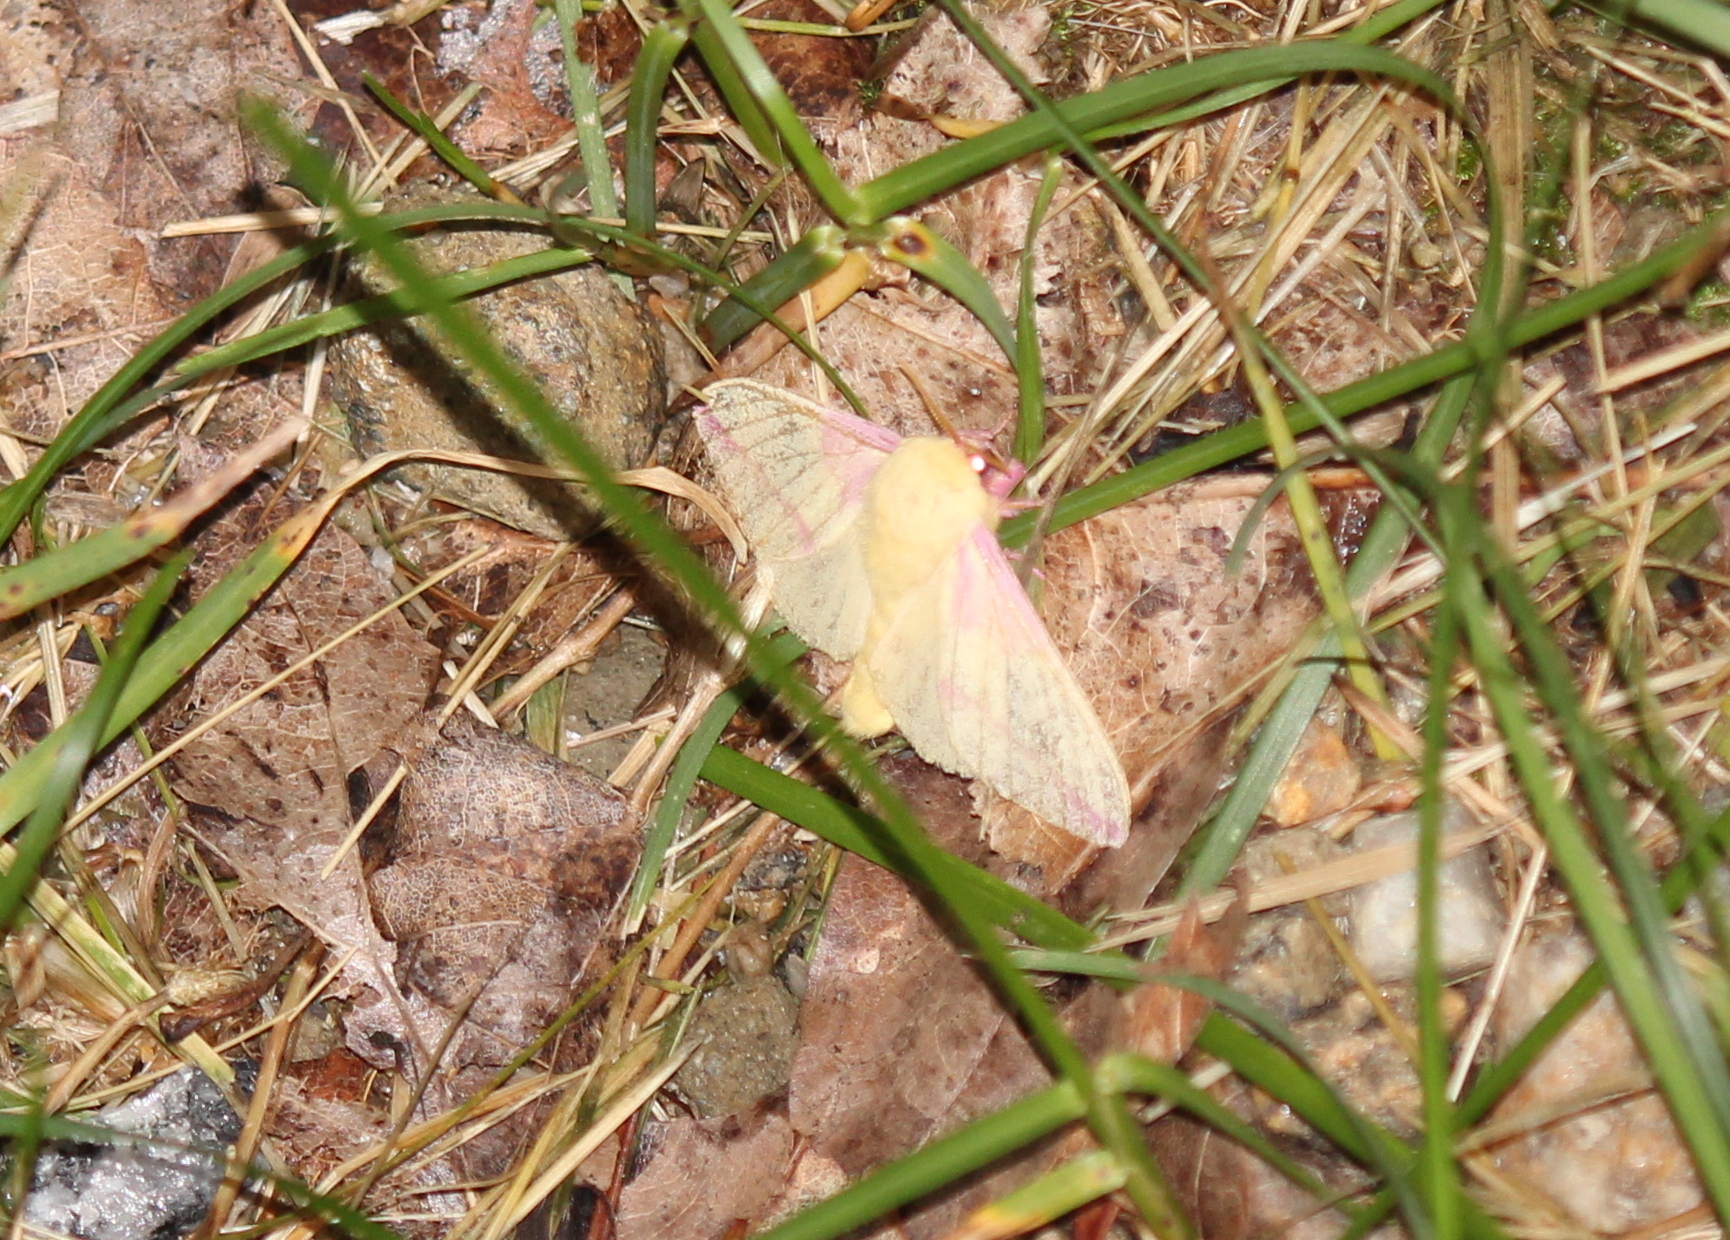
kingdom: Animalia
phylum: Arthropoda
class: Insecta
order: Lepidoptera
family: Saturniidae
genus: Dryocampa
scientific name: Dryocampa rubicunda
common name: Rosy maple moth
